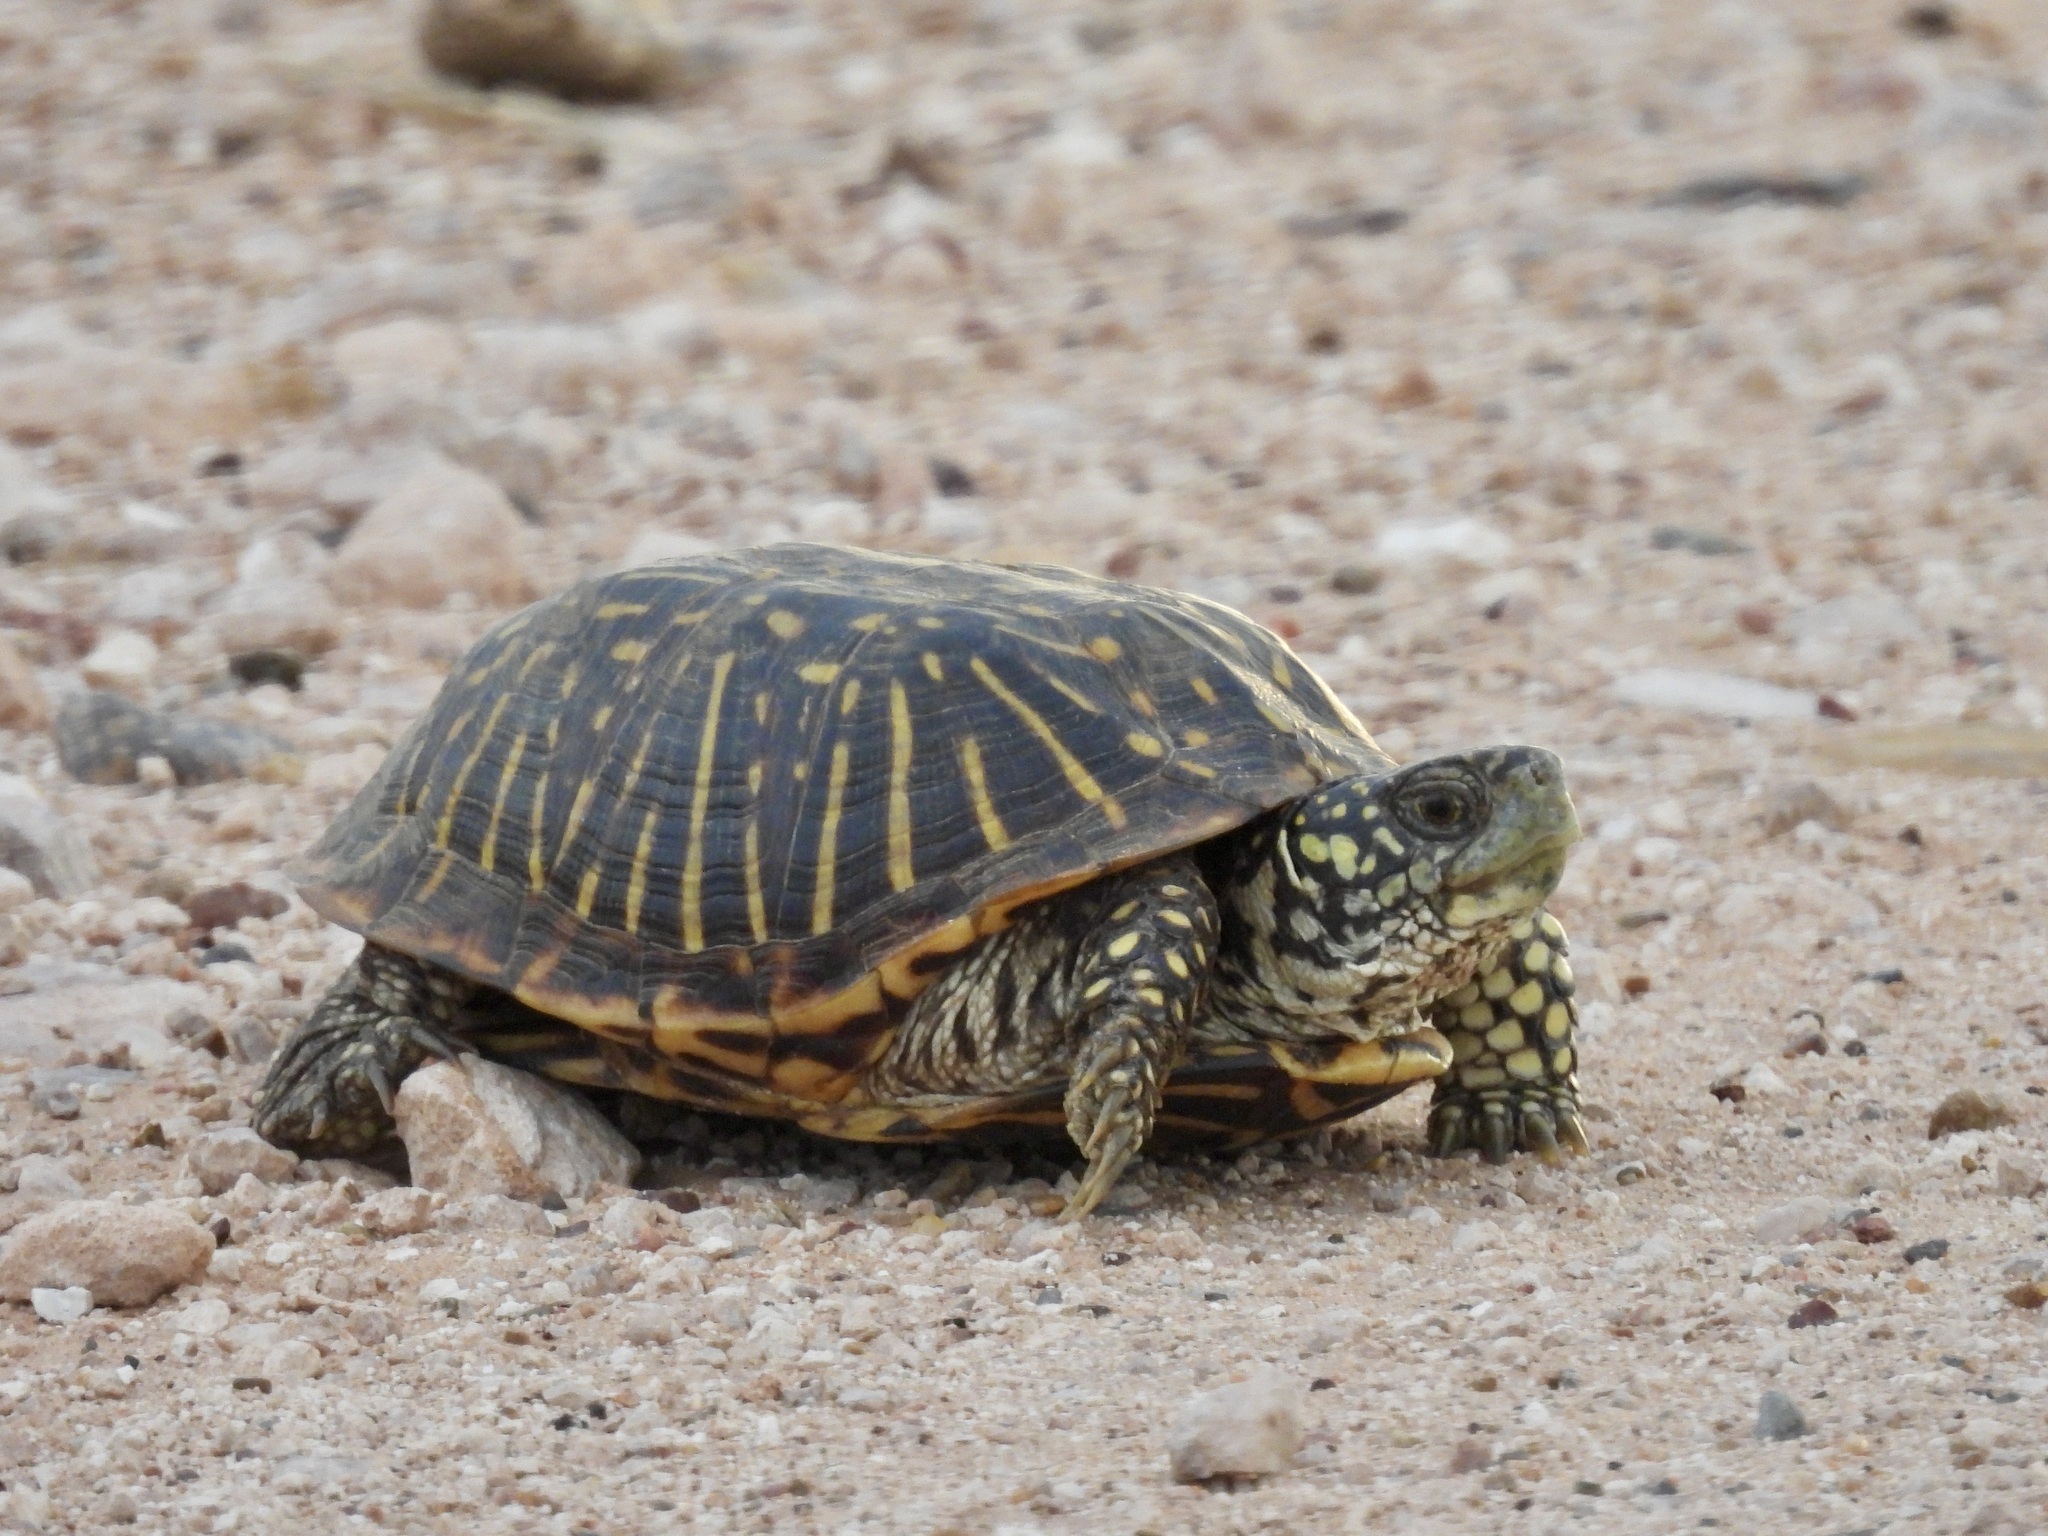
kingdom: Animalia
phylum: Chordata
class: Testudines
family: Emydidae
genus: Terrapene
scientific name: Terrapene ornata
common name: Western box turtle
